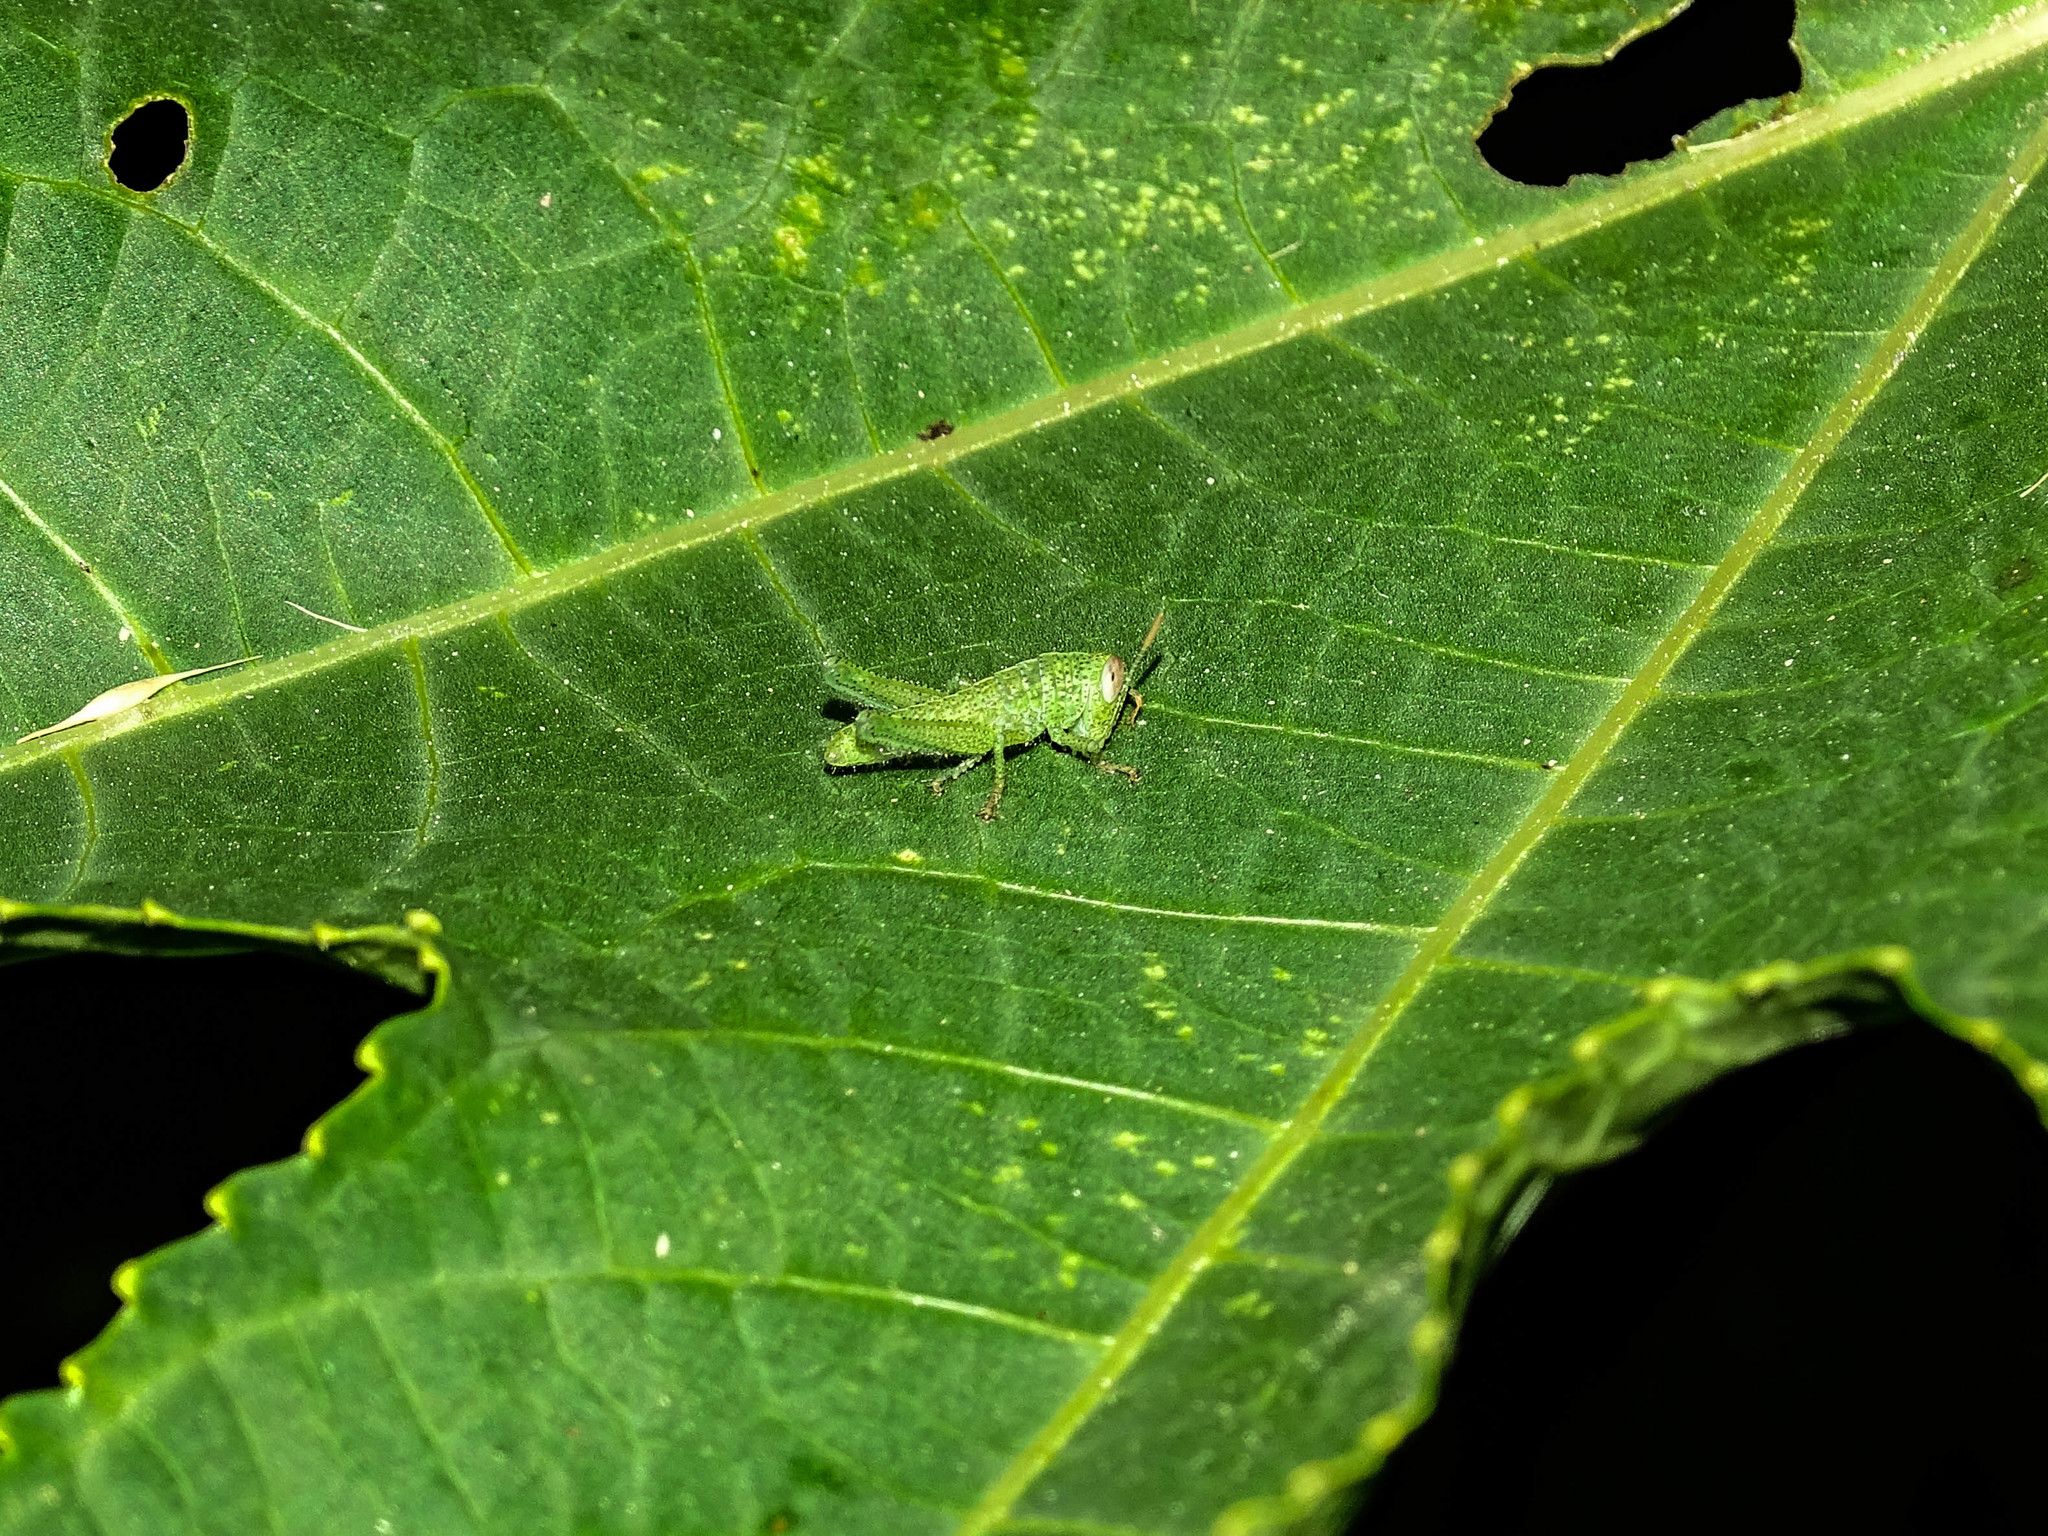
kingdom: Animalia
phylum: Arthropoda
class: Insecta
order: Orthoptera
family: Acrididae
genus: Anacridium
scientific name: Anacridium aegyptium
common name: Egyptian grasshopper
